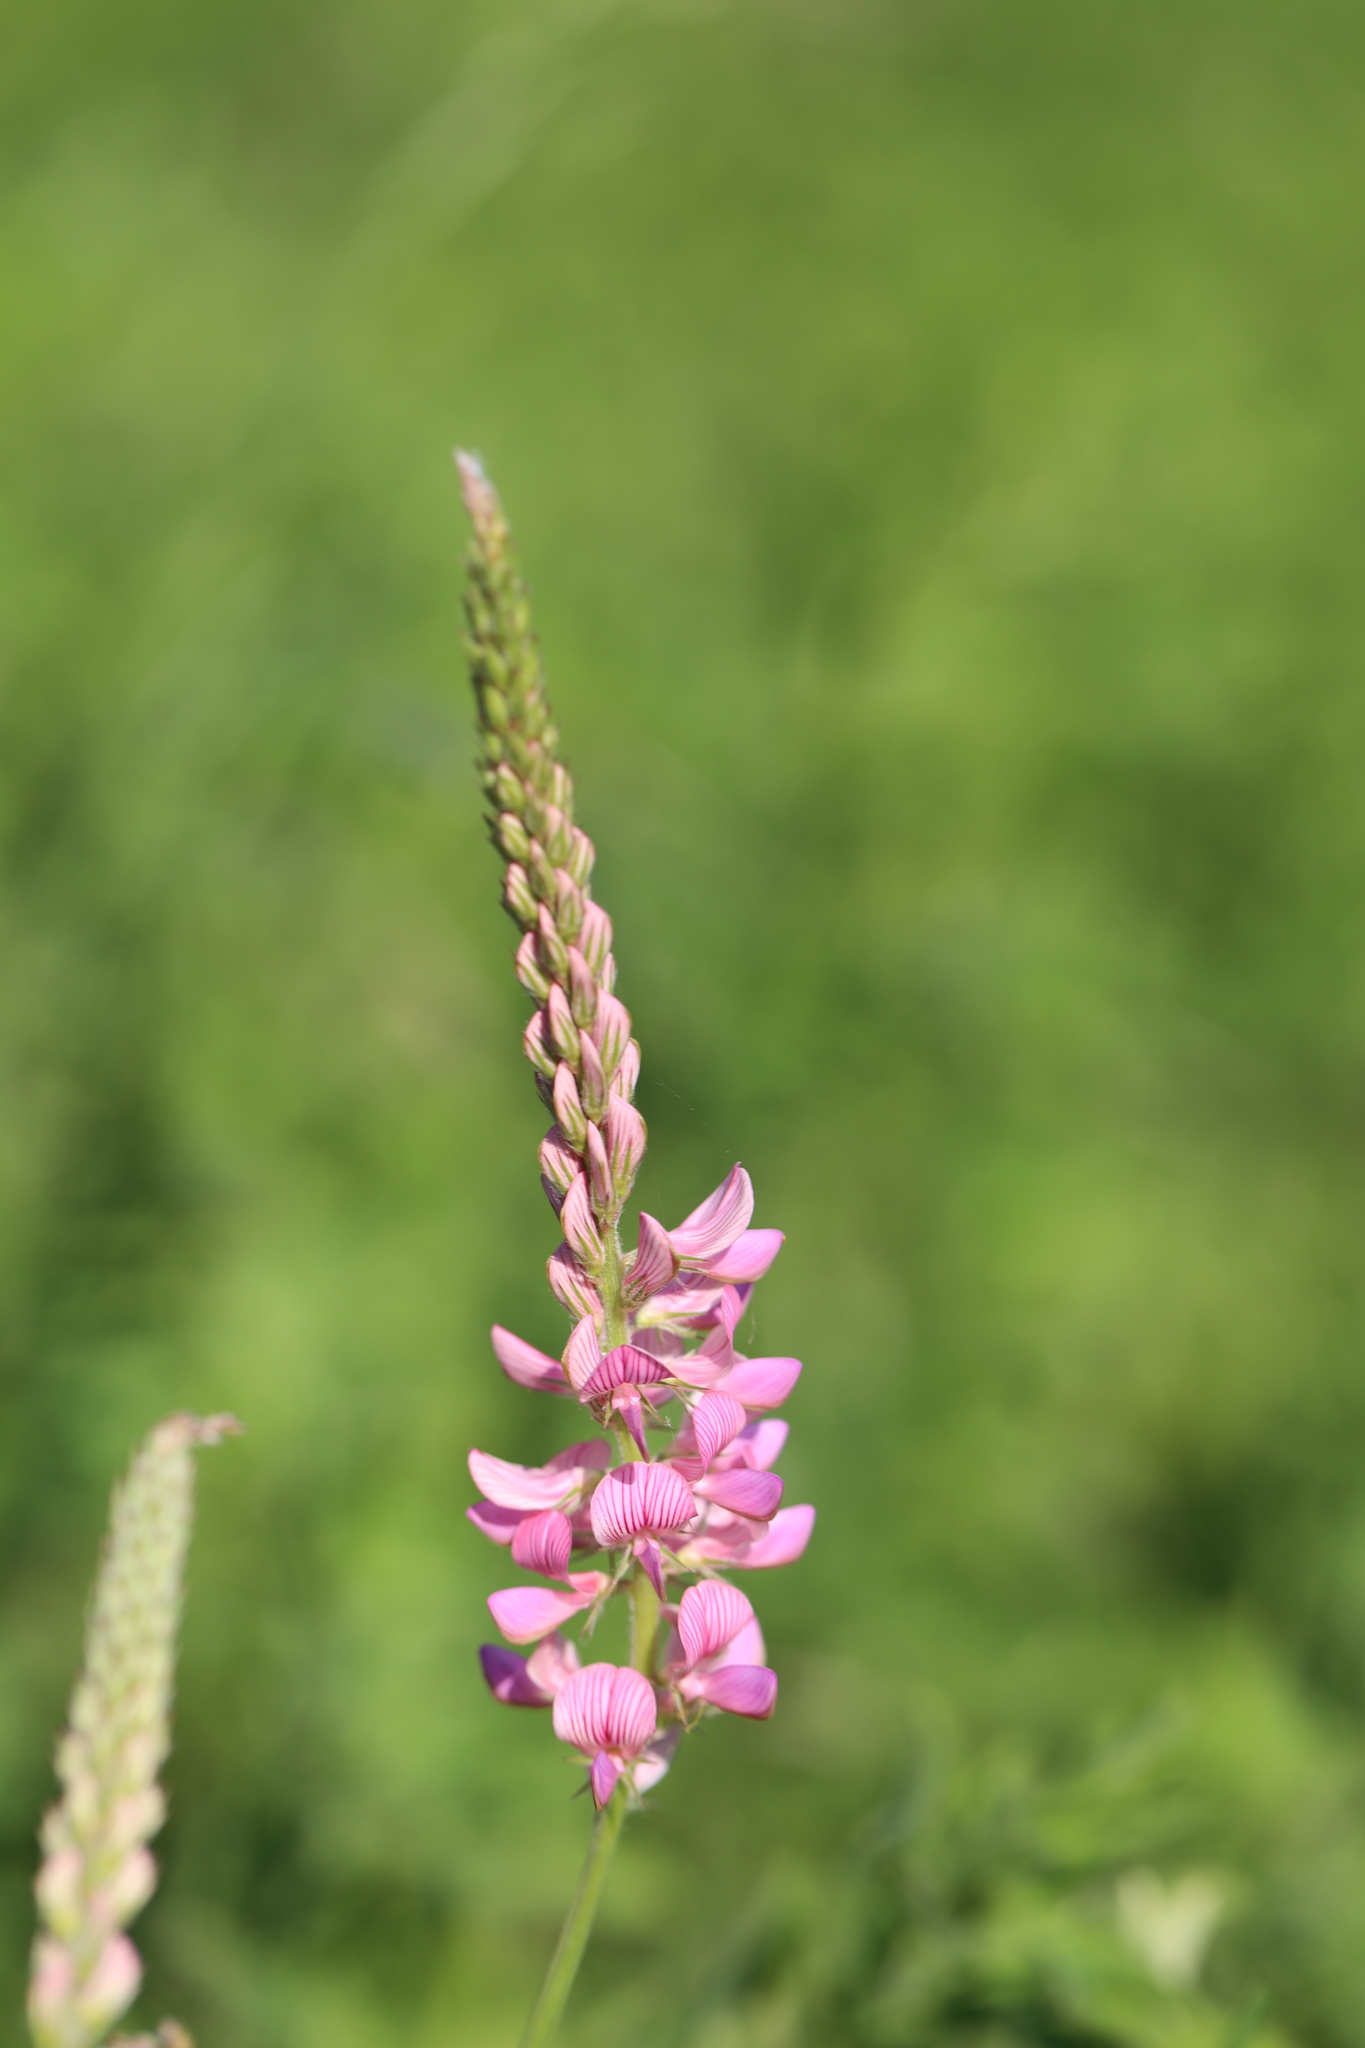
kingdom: Plantae
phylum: Tracheophyta
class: Magnoliopsida
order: Fabales
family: Fabaceae
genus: Onobrychis
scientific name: Onobrychis viciifolia
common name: Sainfoin
